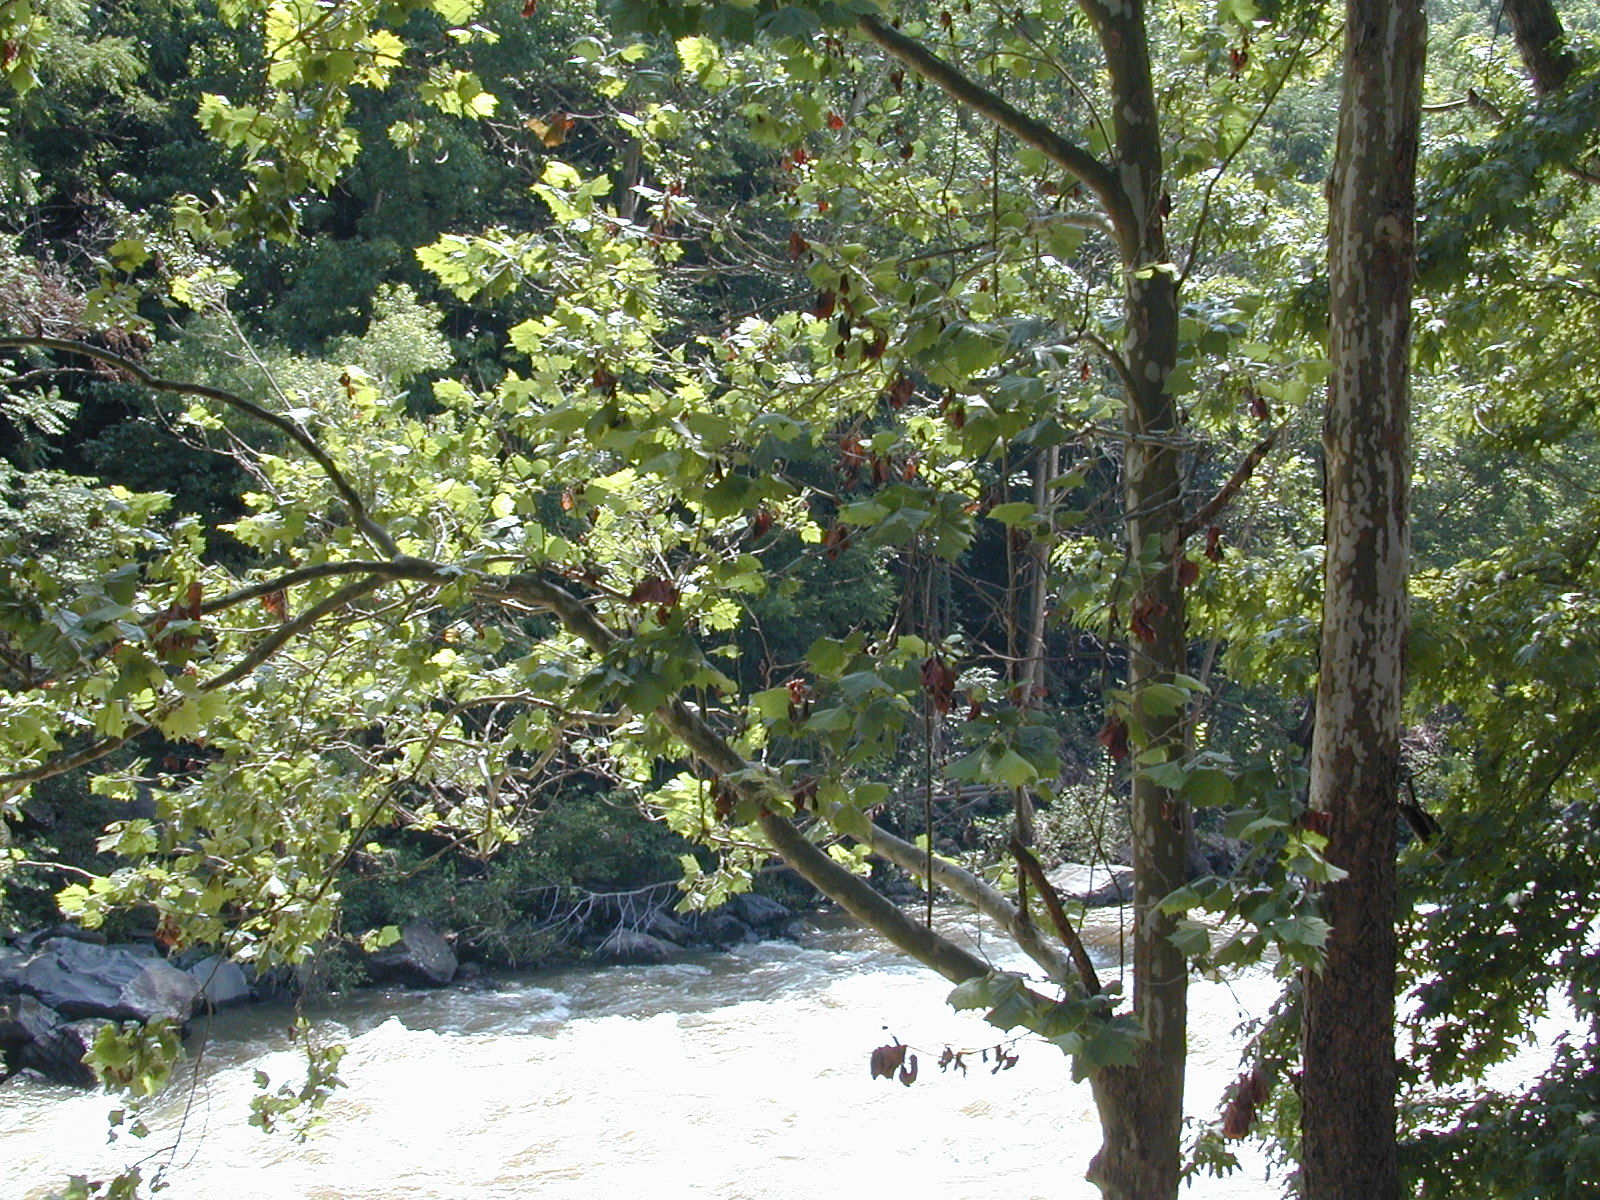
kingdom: Plantae
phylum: Tracheophyta
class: Magnoliopsida
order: Proteales
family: Platanaceae
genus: Platanus
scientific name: Platanus occidentalis
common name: American sycamore
